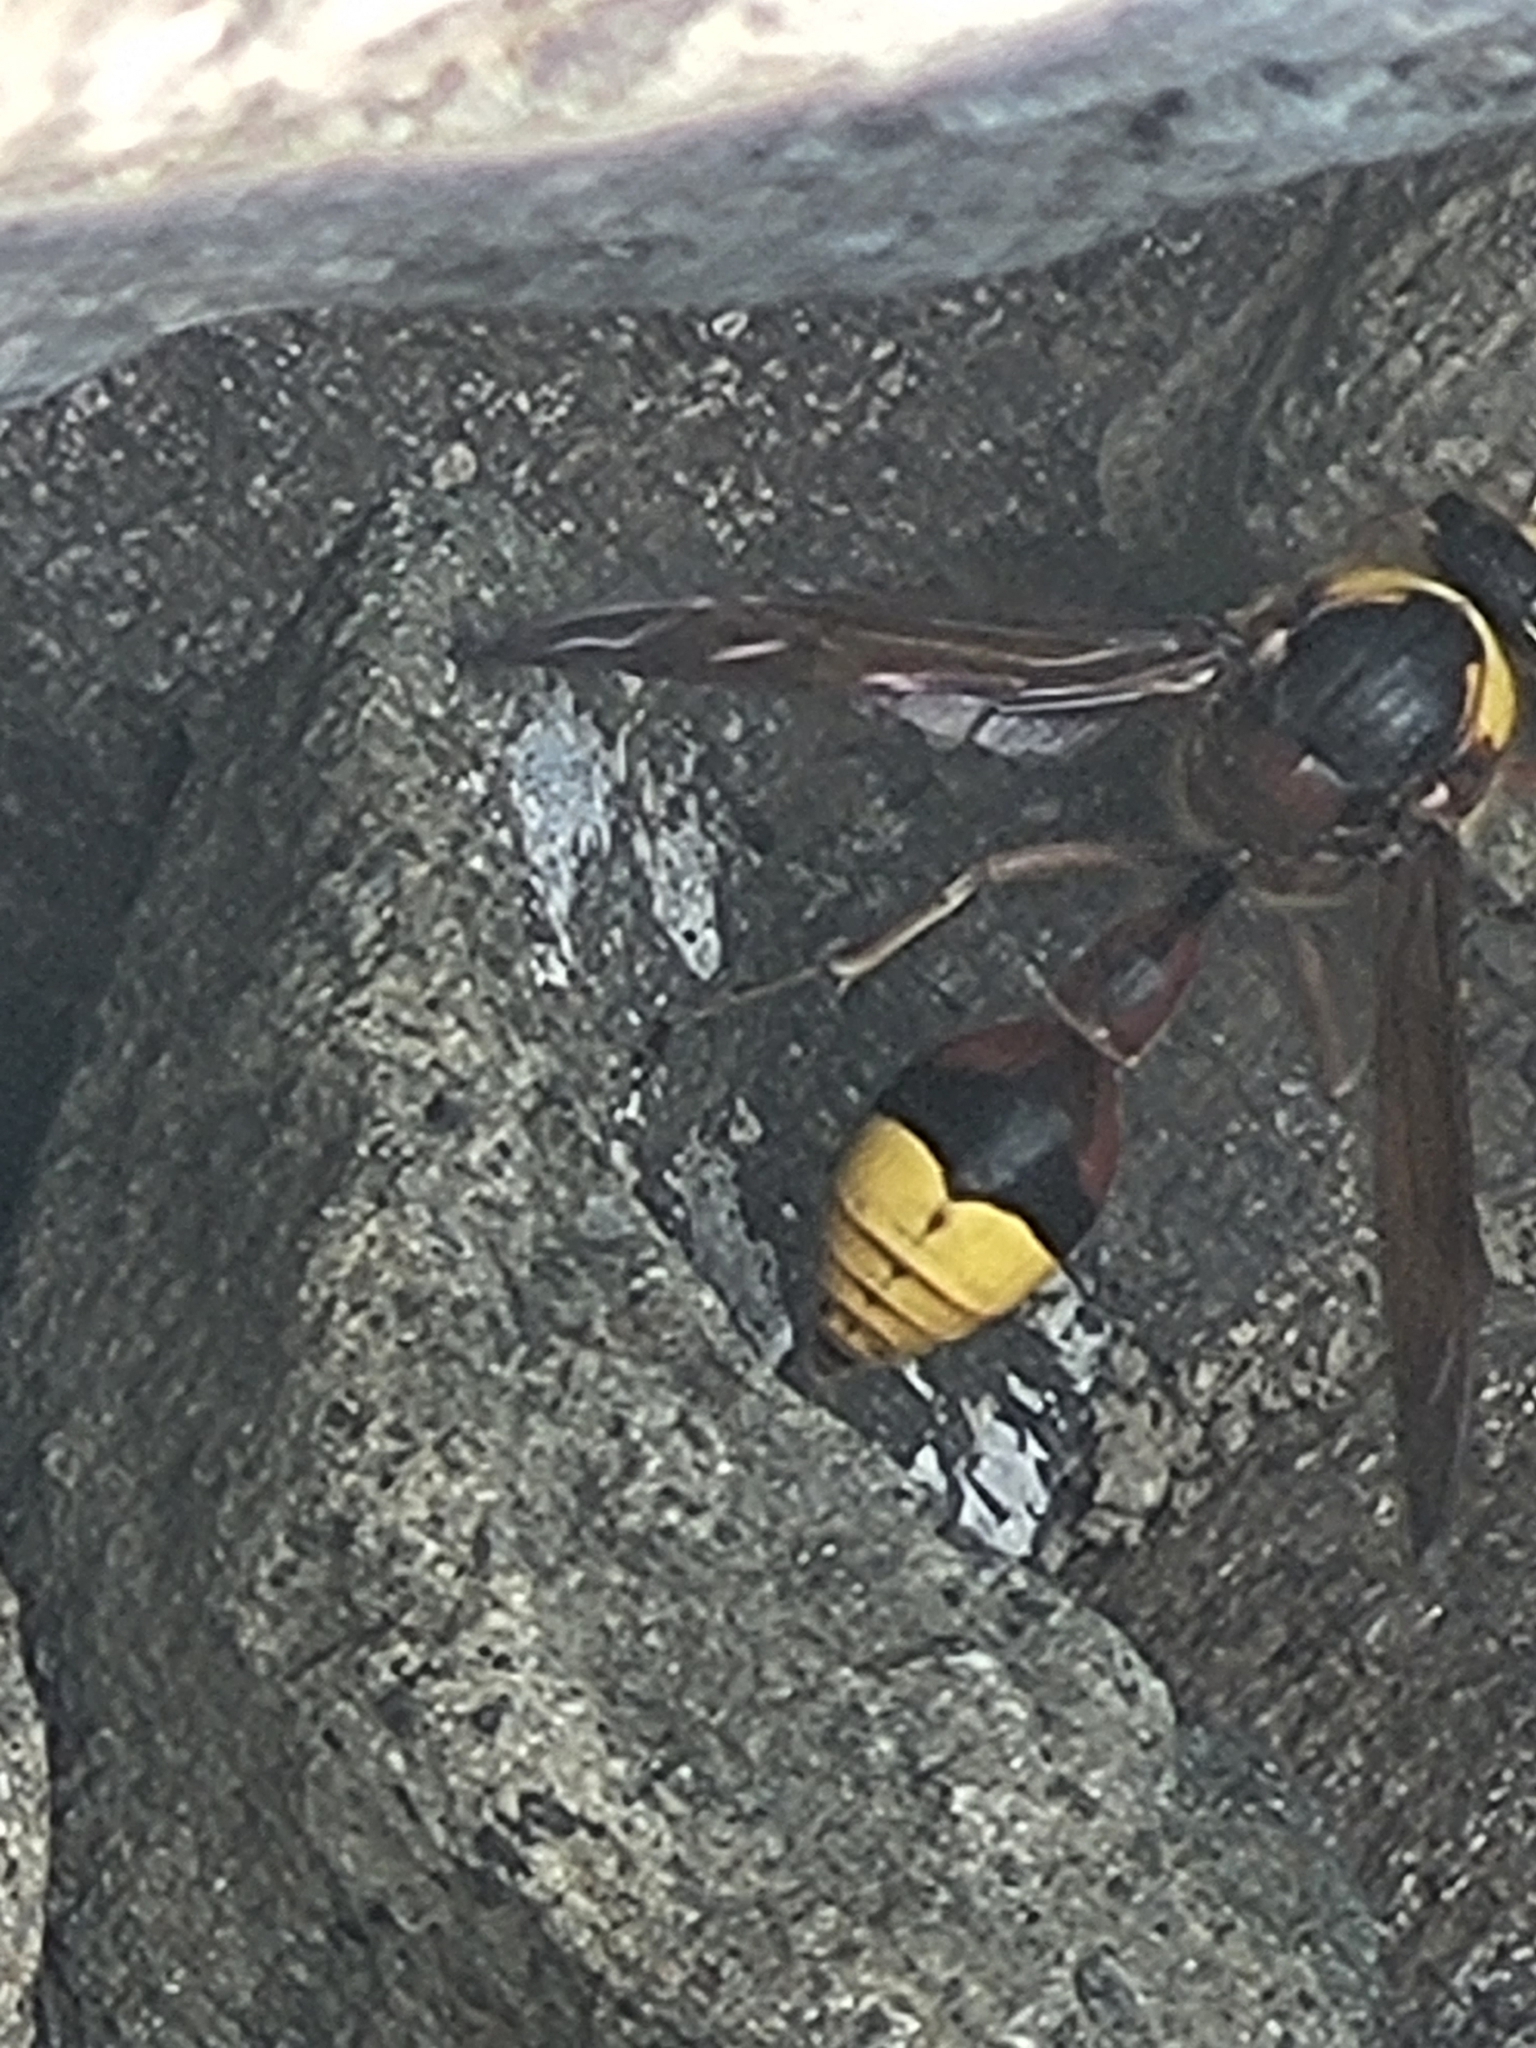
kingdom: Animalia
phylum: Arthropoda
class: Insecta
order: Hymenoptera
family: Eumenidae
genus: Delta
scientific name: Delta unguiculatum
